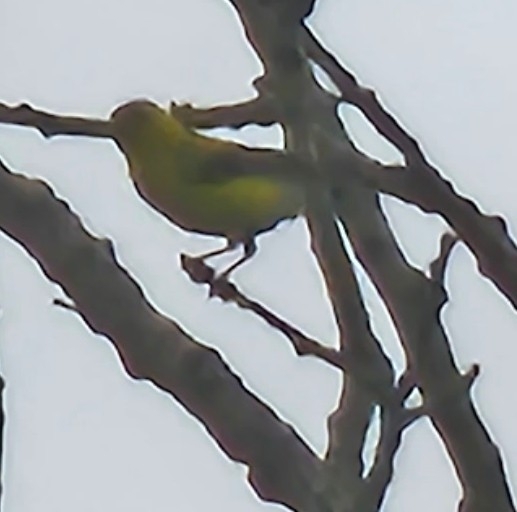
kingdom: Animalia
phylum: Chordata
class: Aves
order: Passeriformes
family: Fringillidae
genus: Spinus
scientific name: Spinus tristis
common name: American goldfinch
